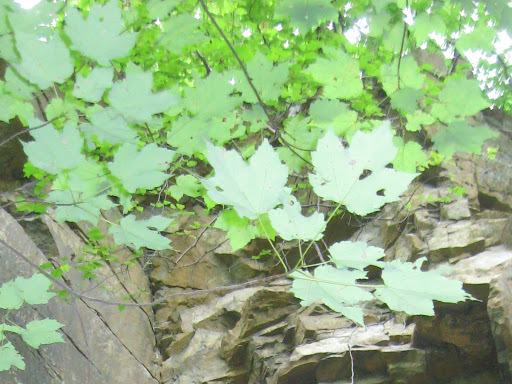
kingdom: Plantae
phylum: Tracheophyta
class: Magnoliopsida
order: Sapindales
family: Sapindaceae
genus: Acer
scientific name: Acer rubrum
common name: Red maple
